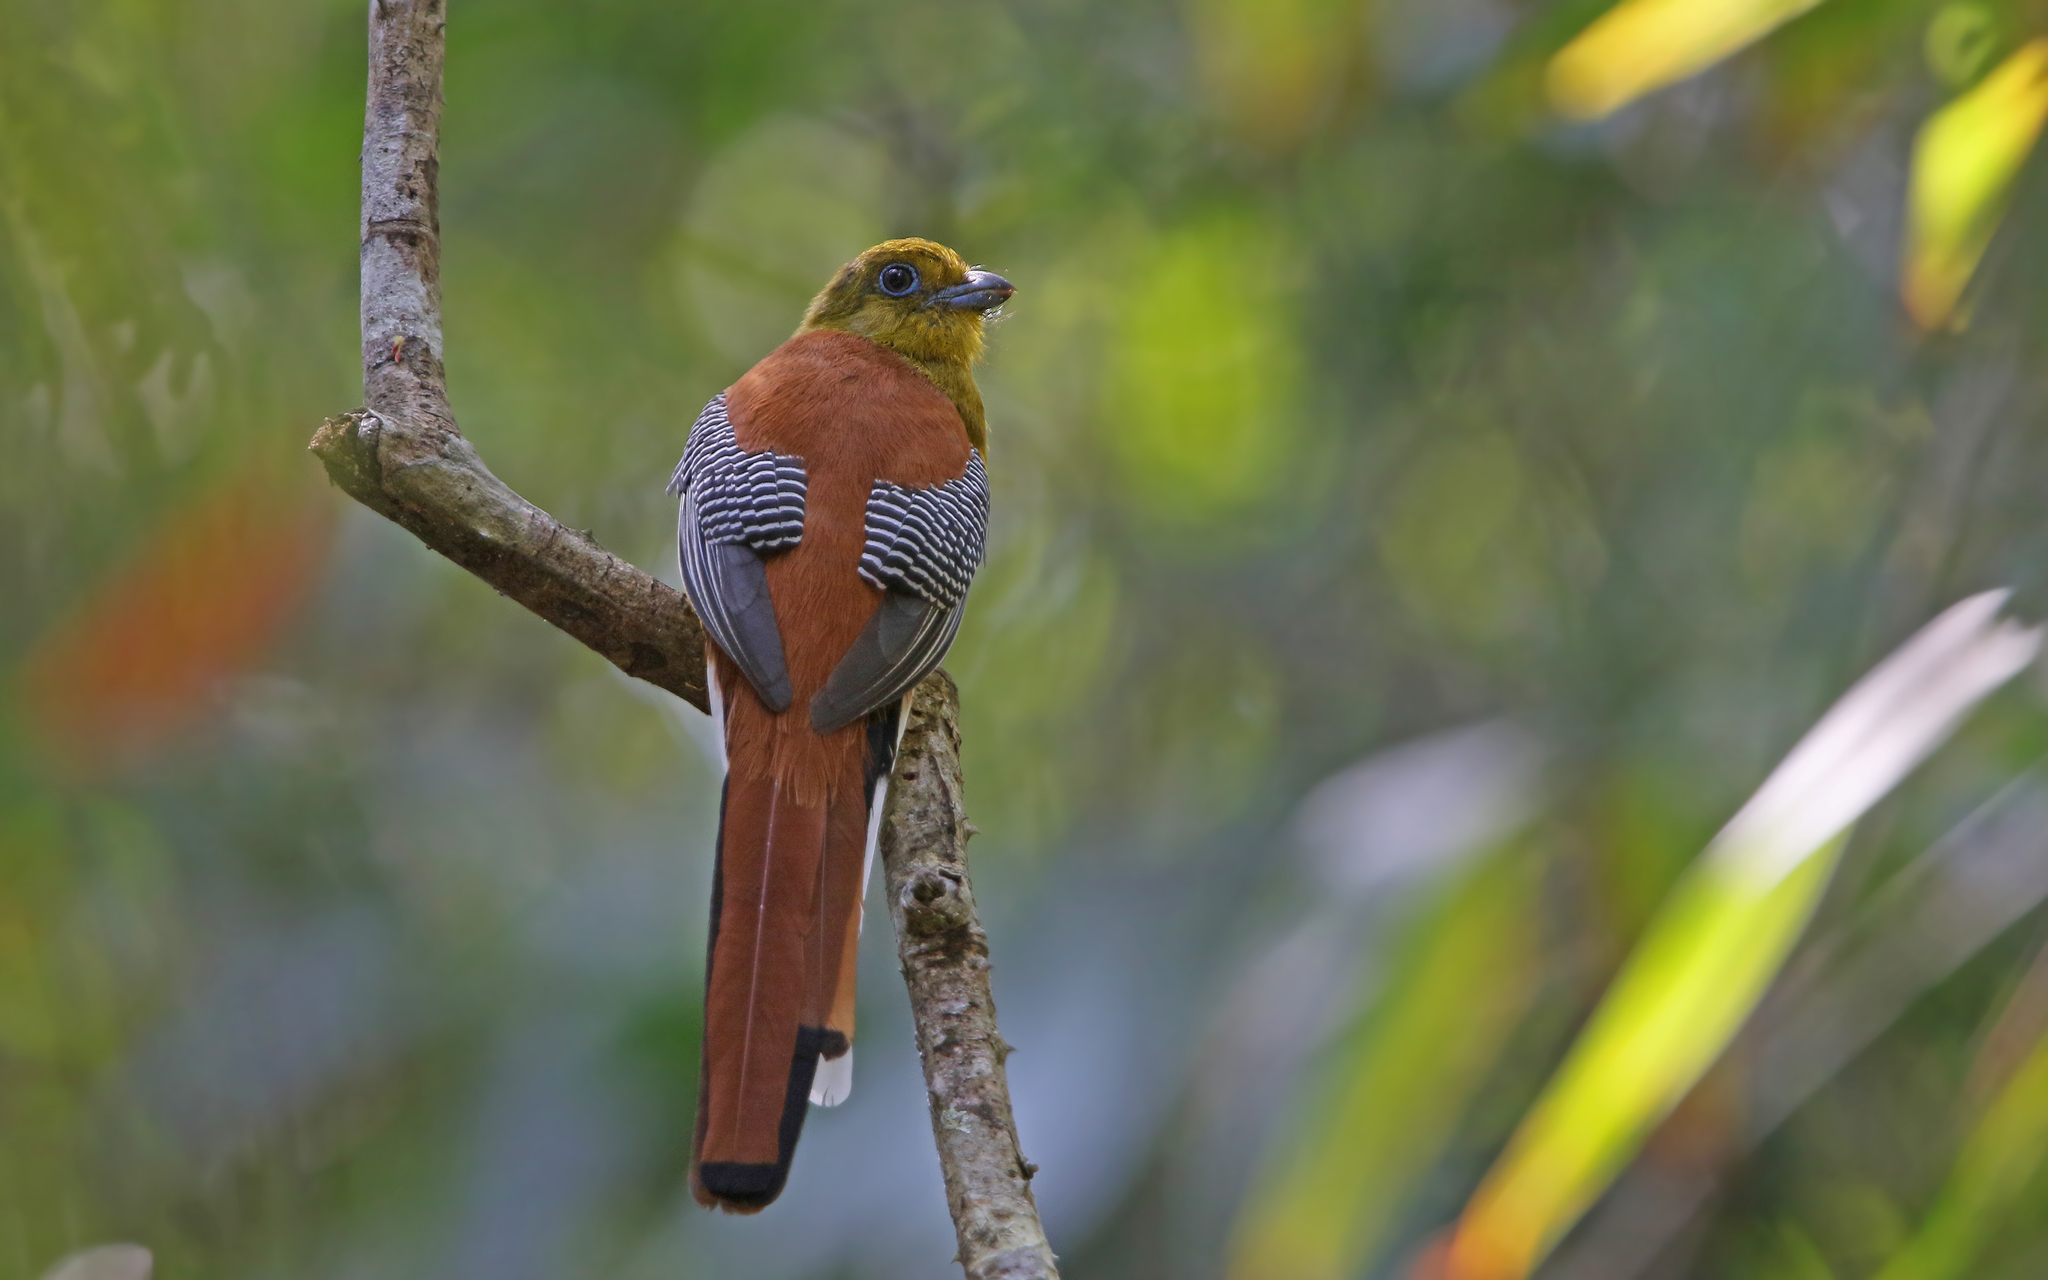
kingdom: Animalia
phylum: Chordata
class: Aves
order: Trogoniformes
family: Trogonidae
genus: Harpactes
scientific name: Harpactes oreskios
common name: Orange-breasted trogon
